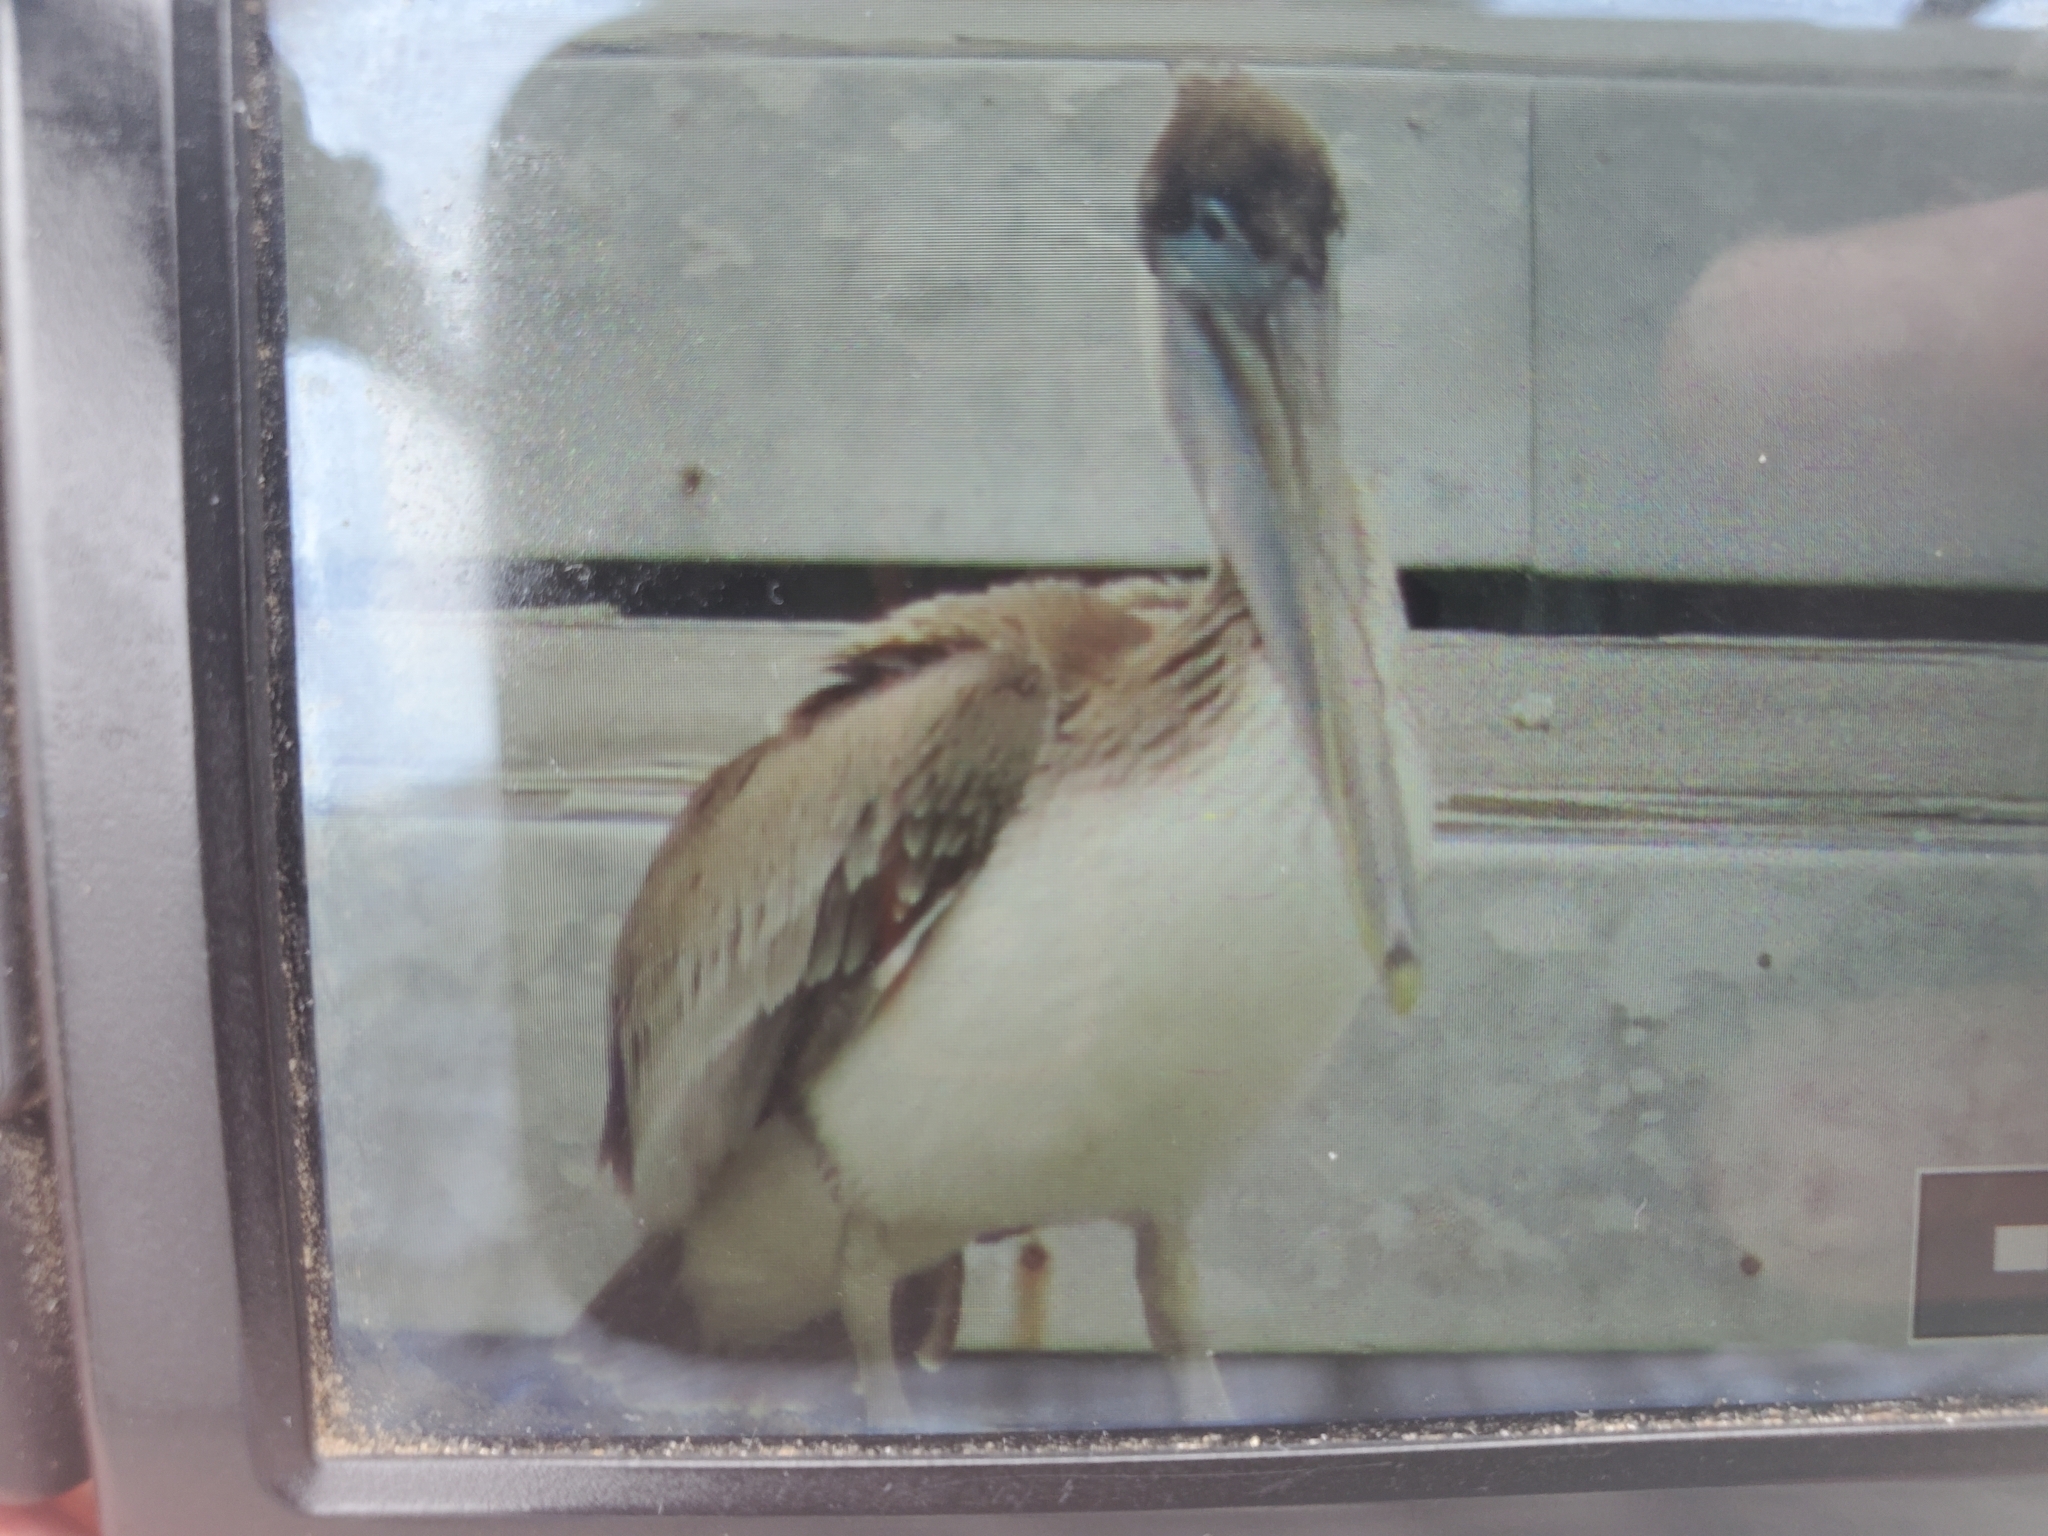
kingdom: Animalia
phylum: Chordata
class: Aves
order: Pelecaniformes
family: Pelecanidae
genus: Pelecanus
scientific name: Pelecanus occidentalis
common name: Brown pelican
